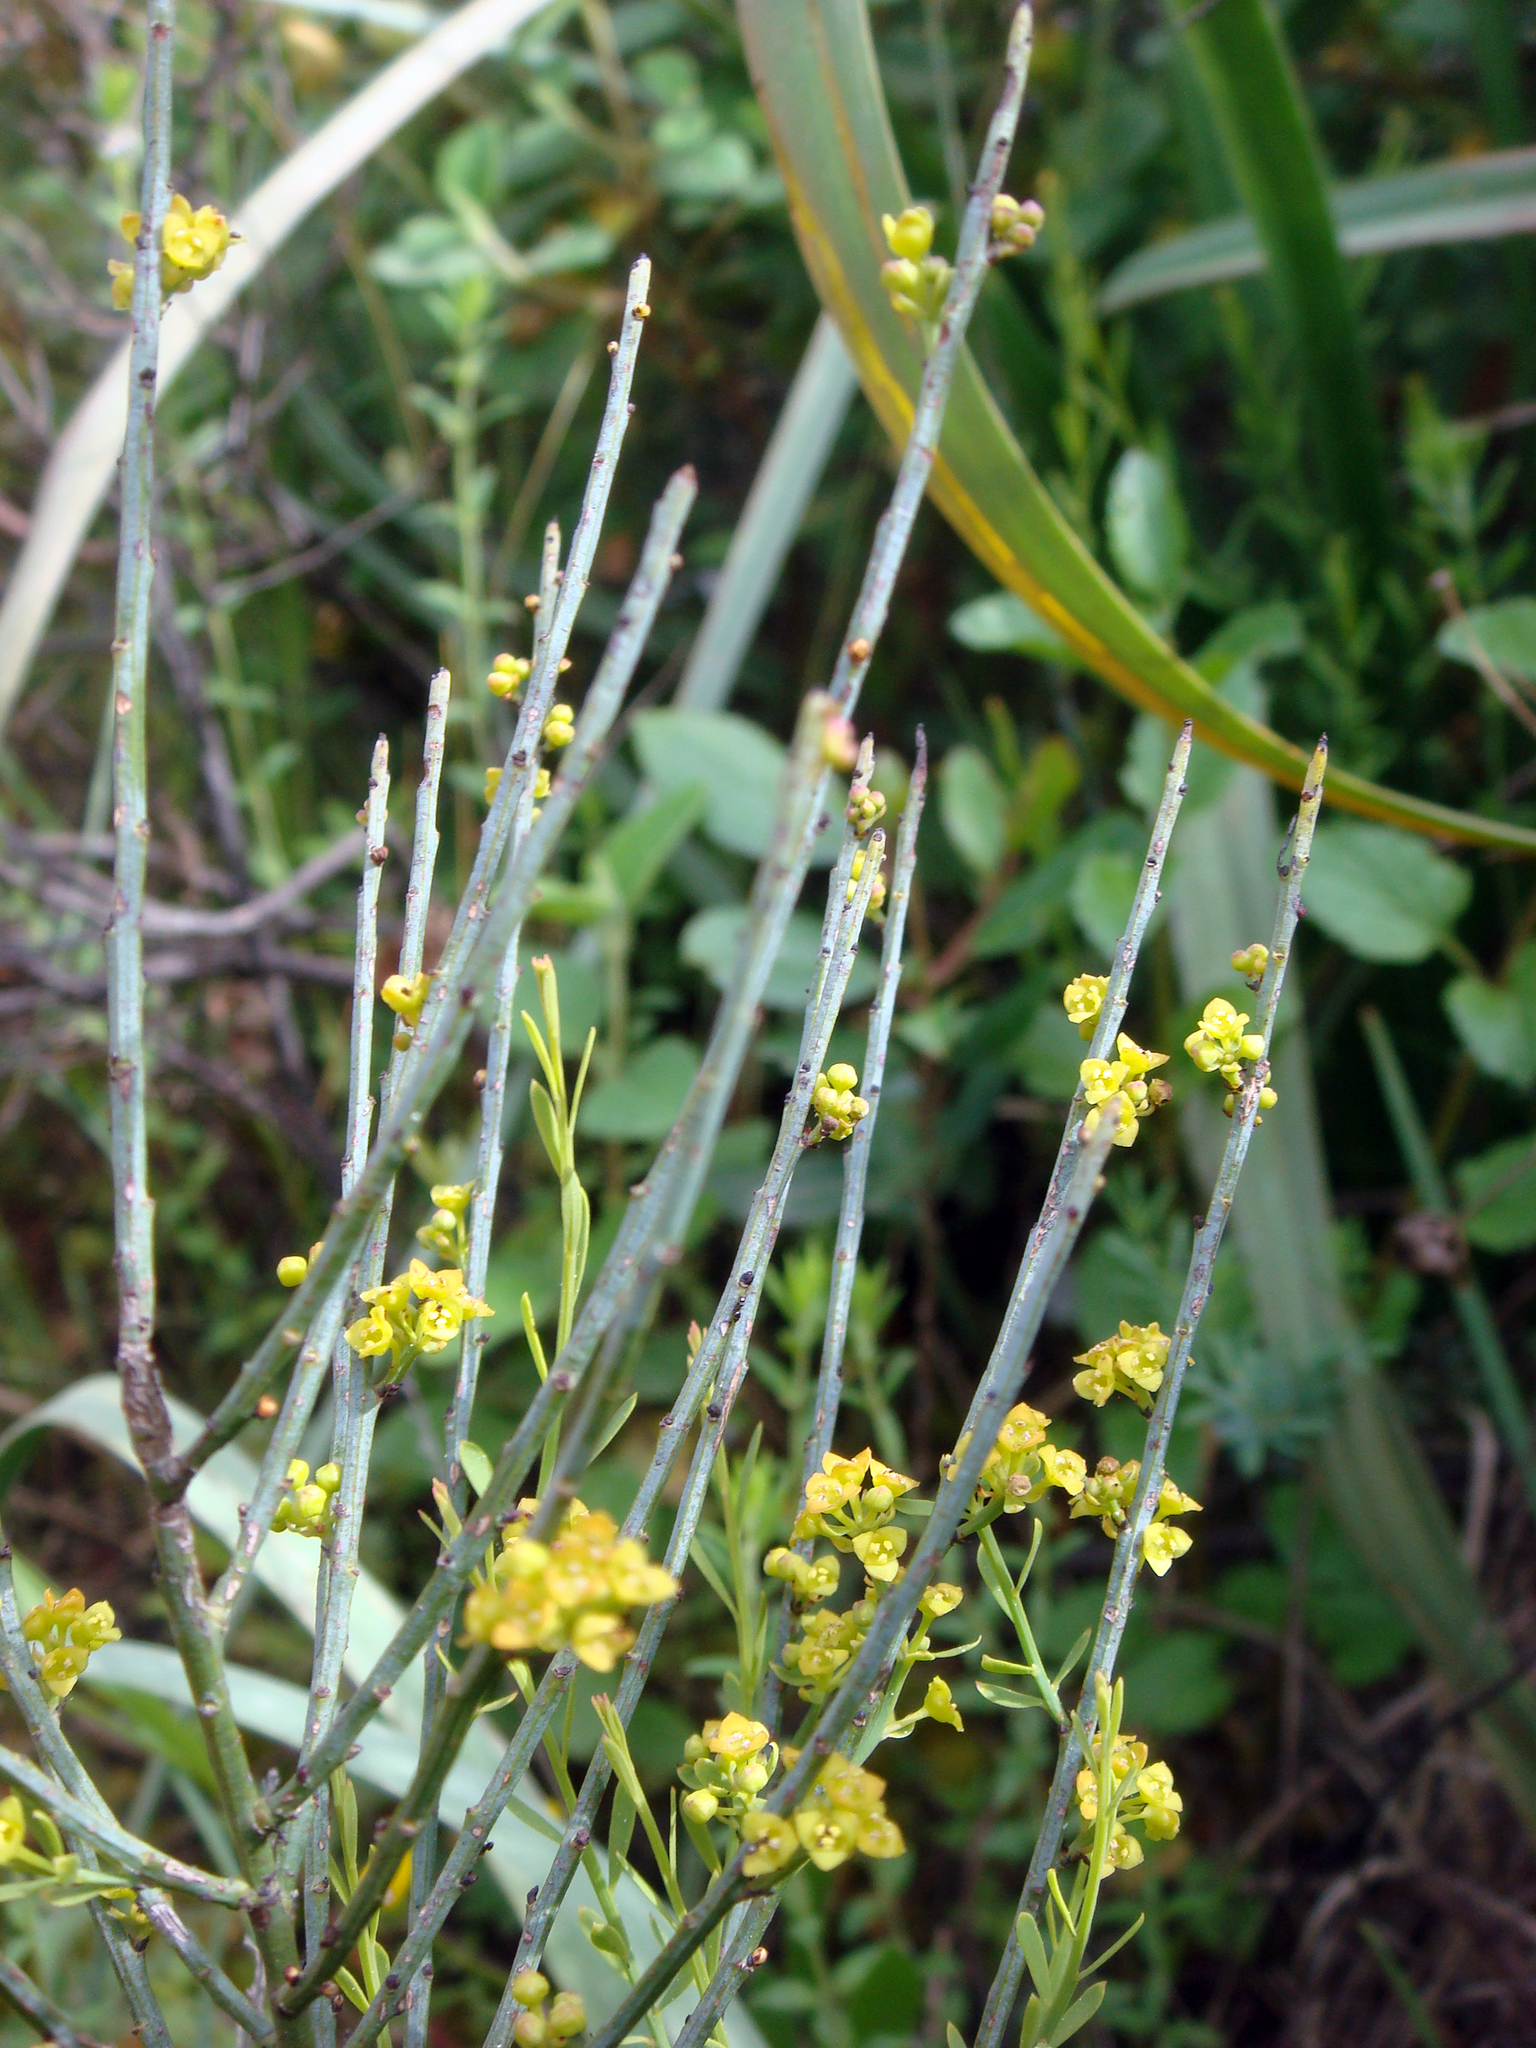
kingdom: Plantae
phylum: Tracheophyta
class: Magnoliopsida
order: Santalales
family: Santalaceae
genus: Osyris
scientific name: Osyris alba
